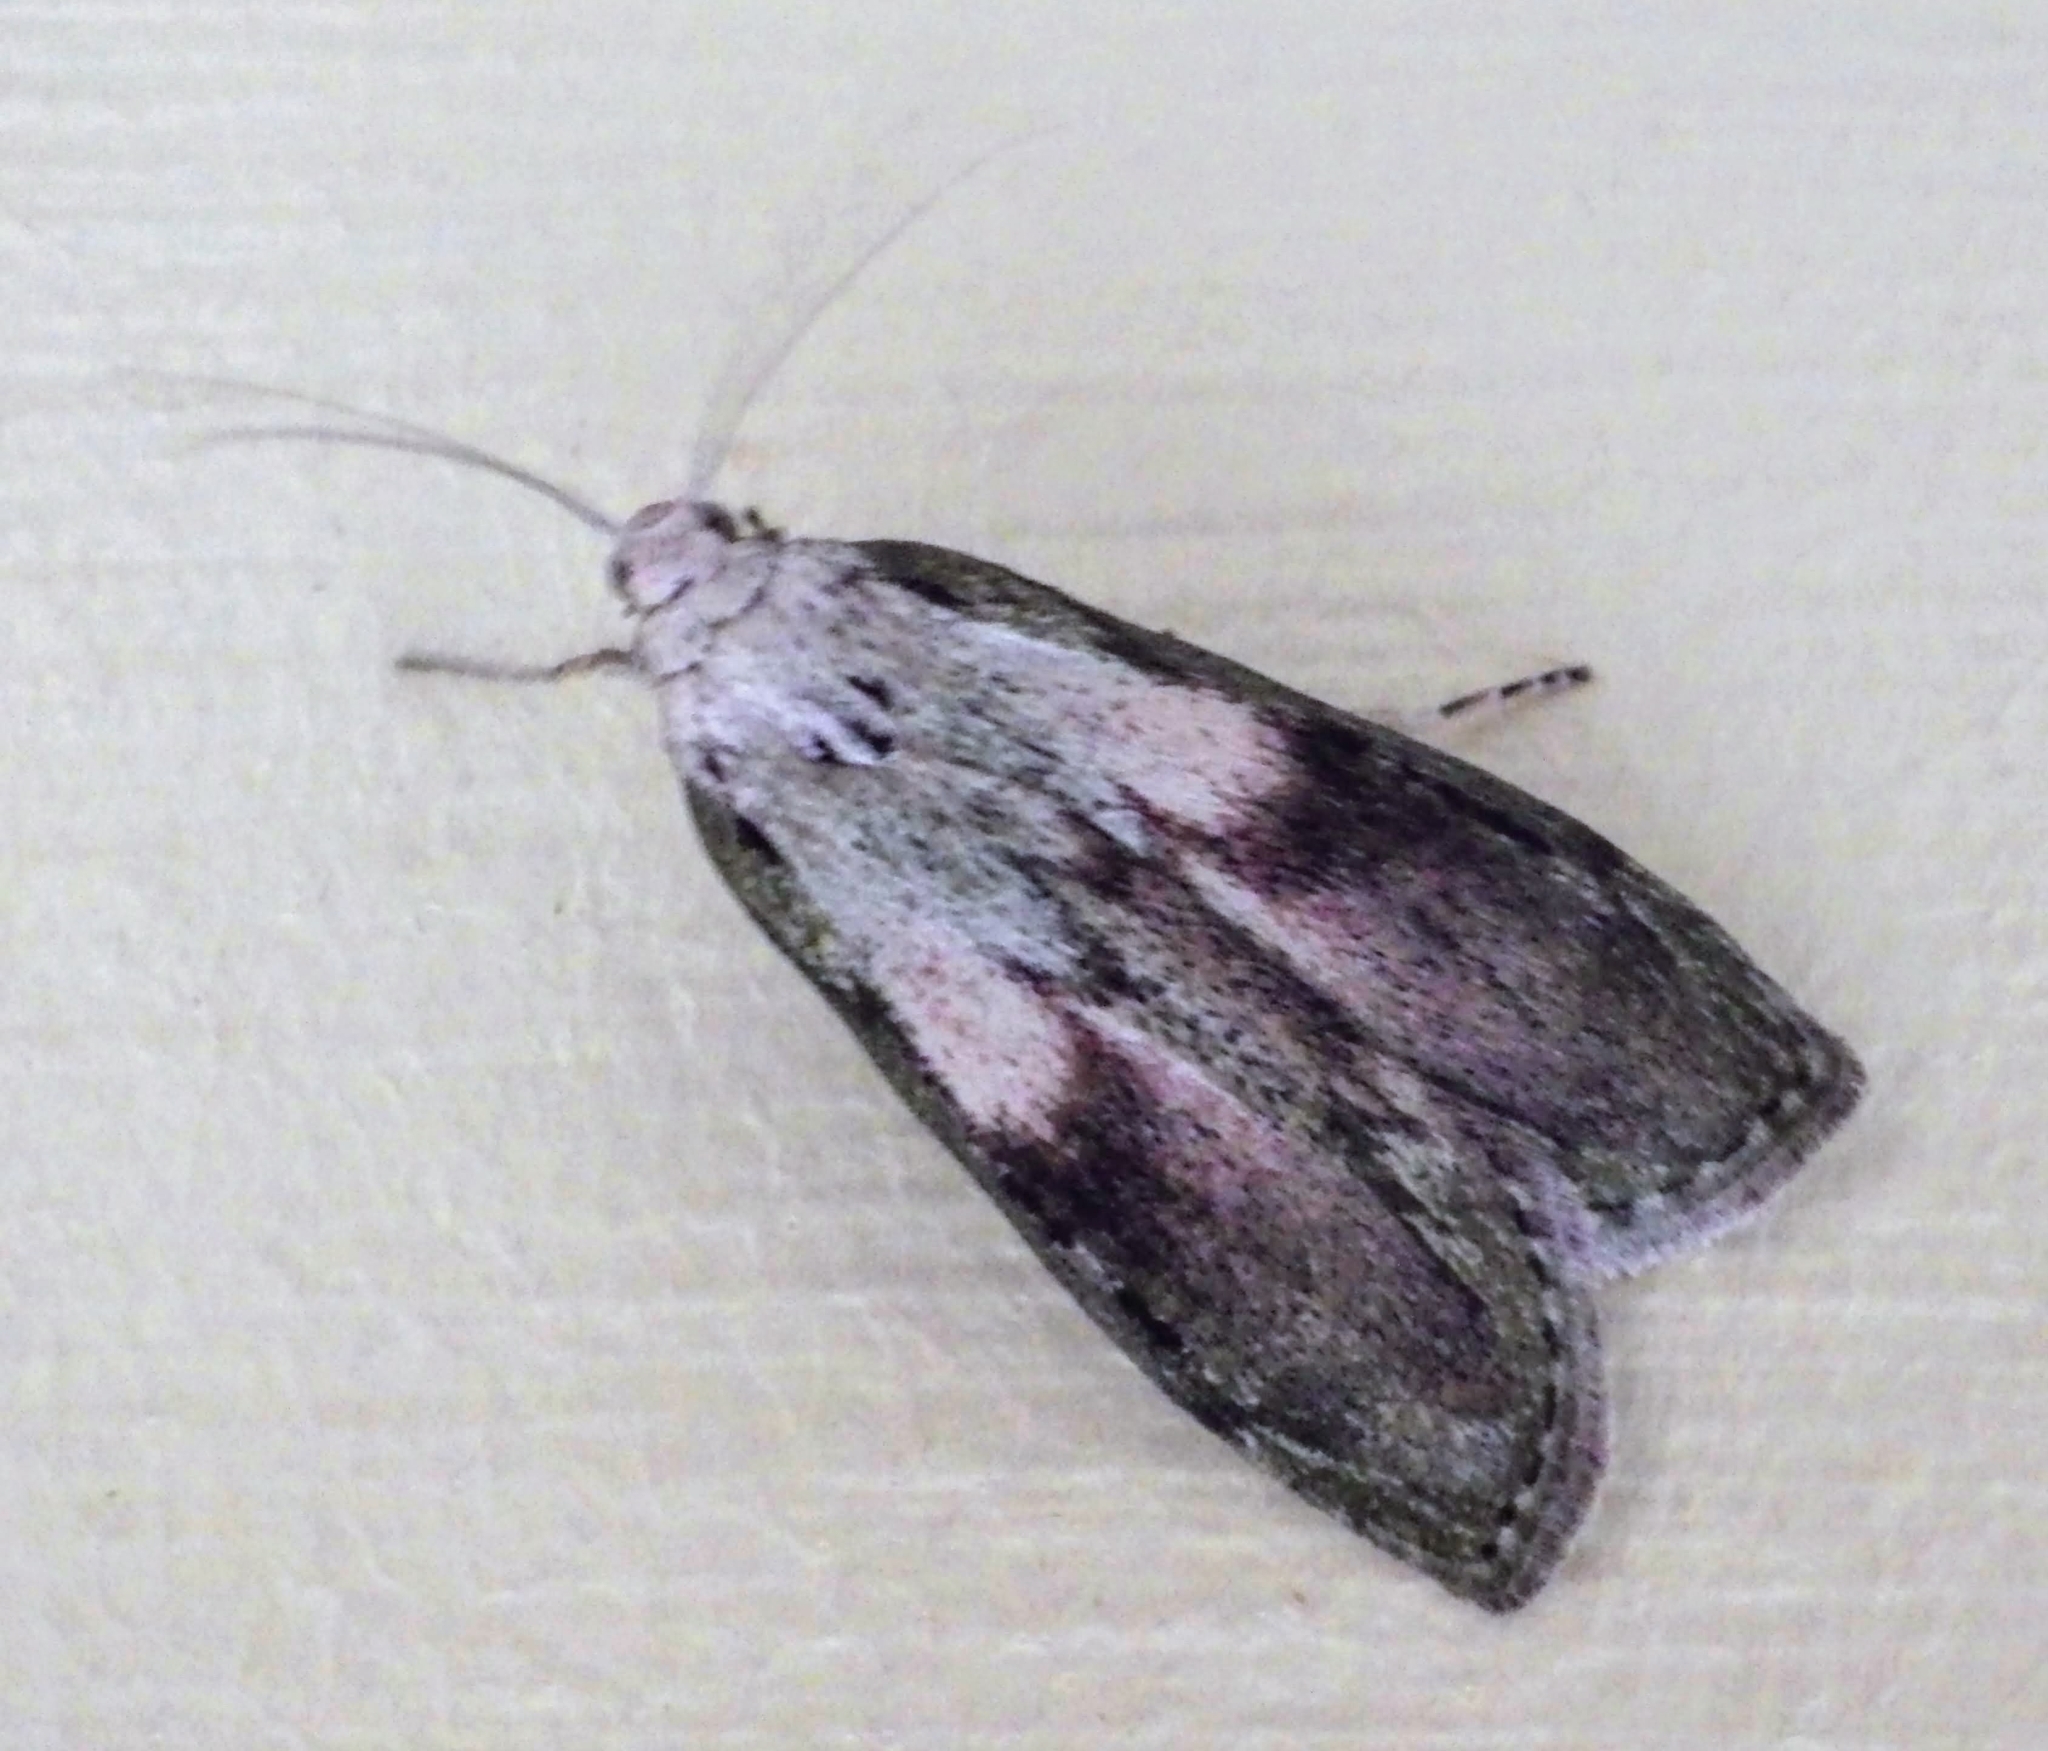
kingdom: Animalia
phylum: Arthropoda
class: Insecta
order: Lepidoptera
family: Pyralidae
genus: Aphomia
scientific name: Aphomia sociella
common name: Bee moth
